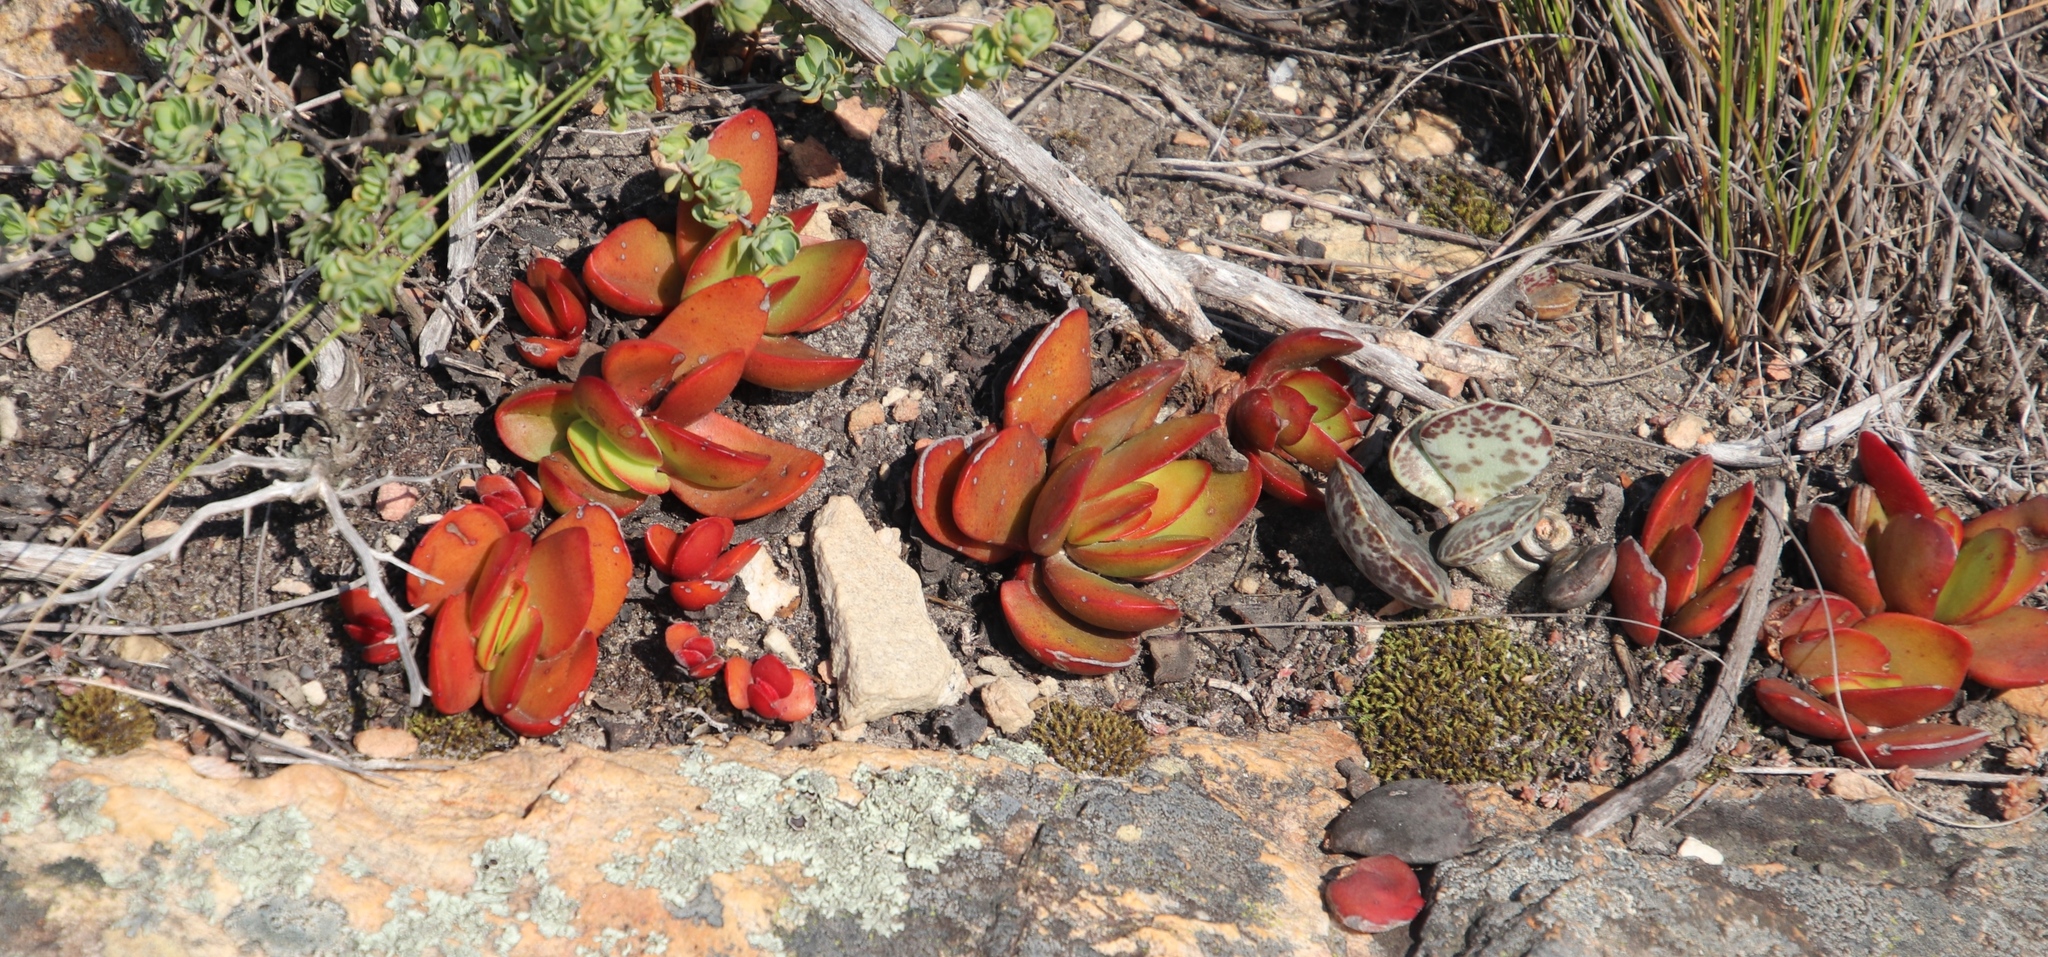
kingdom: Plantae
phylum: Tracheophyta
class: Magnoliopsida
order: Saxifragales
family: Crassulaceae
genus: Crassula
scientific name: Crassula nudicaulis
